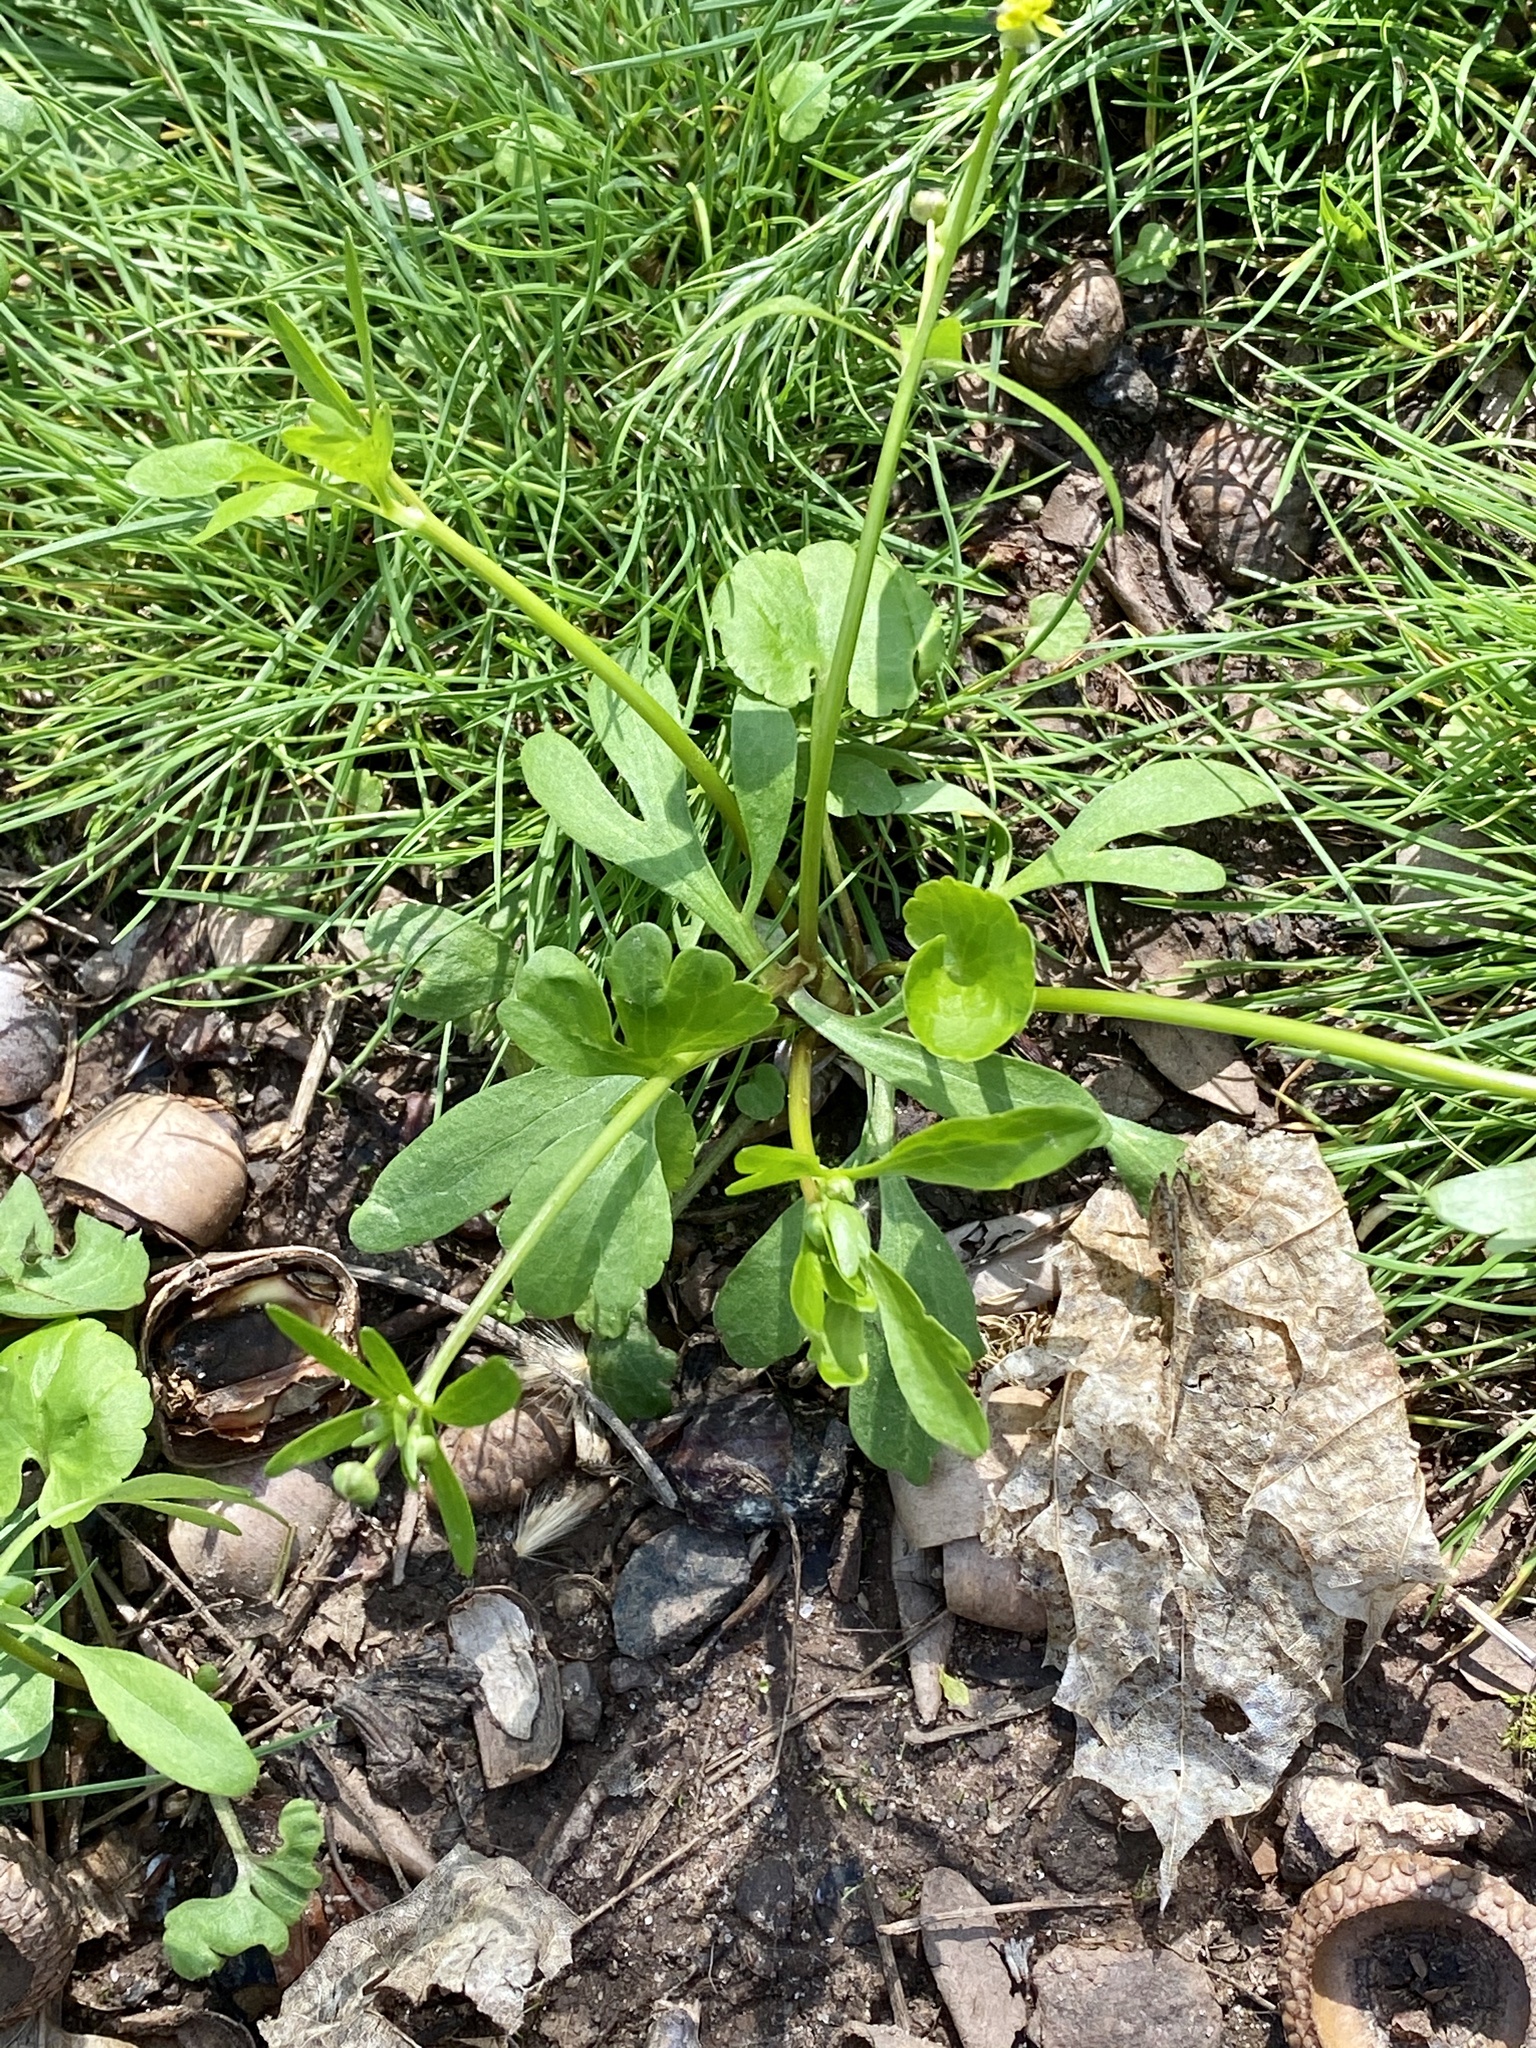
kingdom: Plantae
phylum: Tracheophyta
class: Magnoliopsida
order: Ranunculales
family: Ranunculaceae
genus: Ranunculus
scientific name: Ranunculus abortivus
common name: Early wood buttercup
